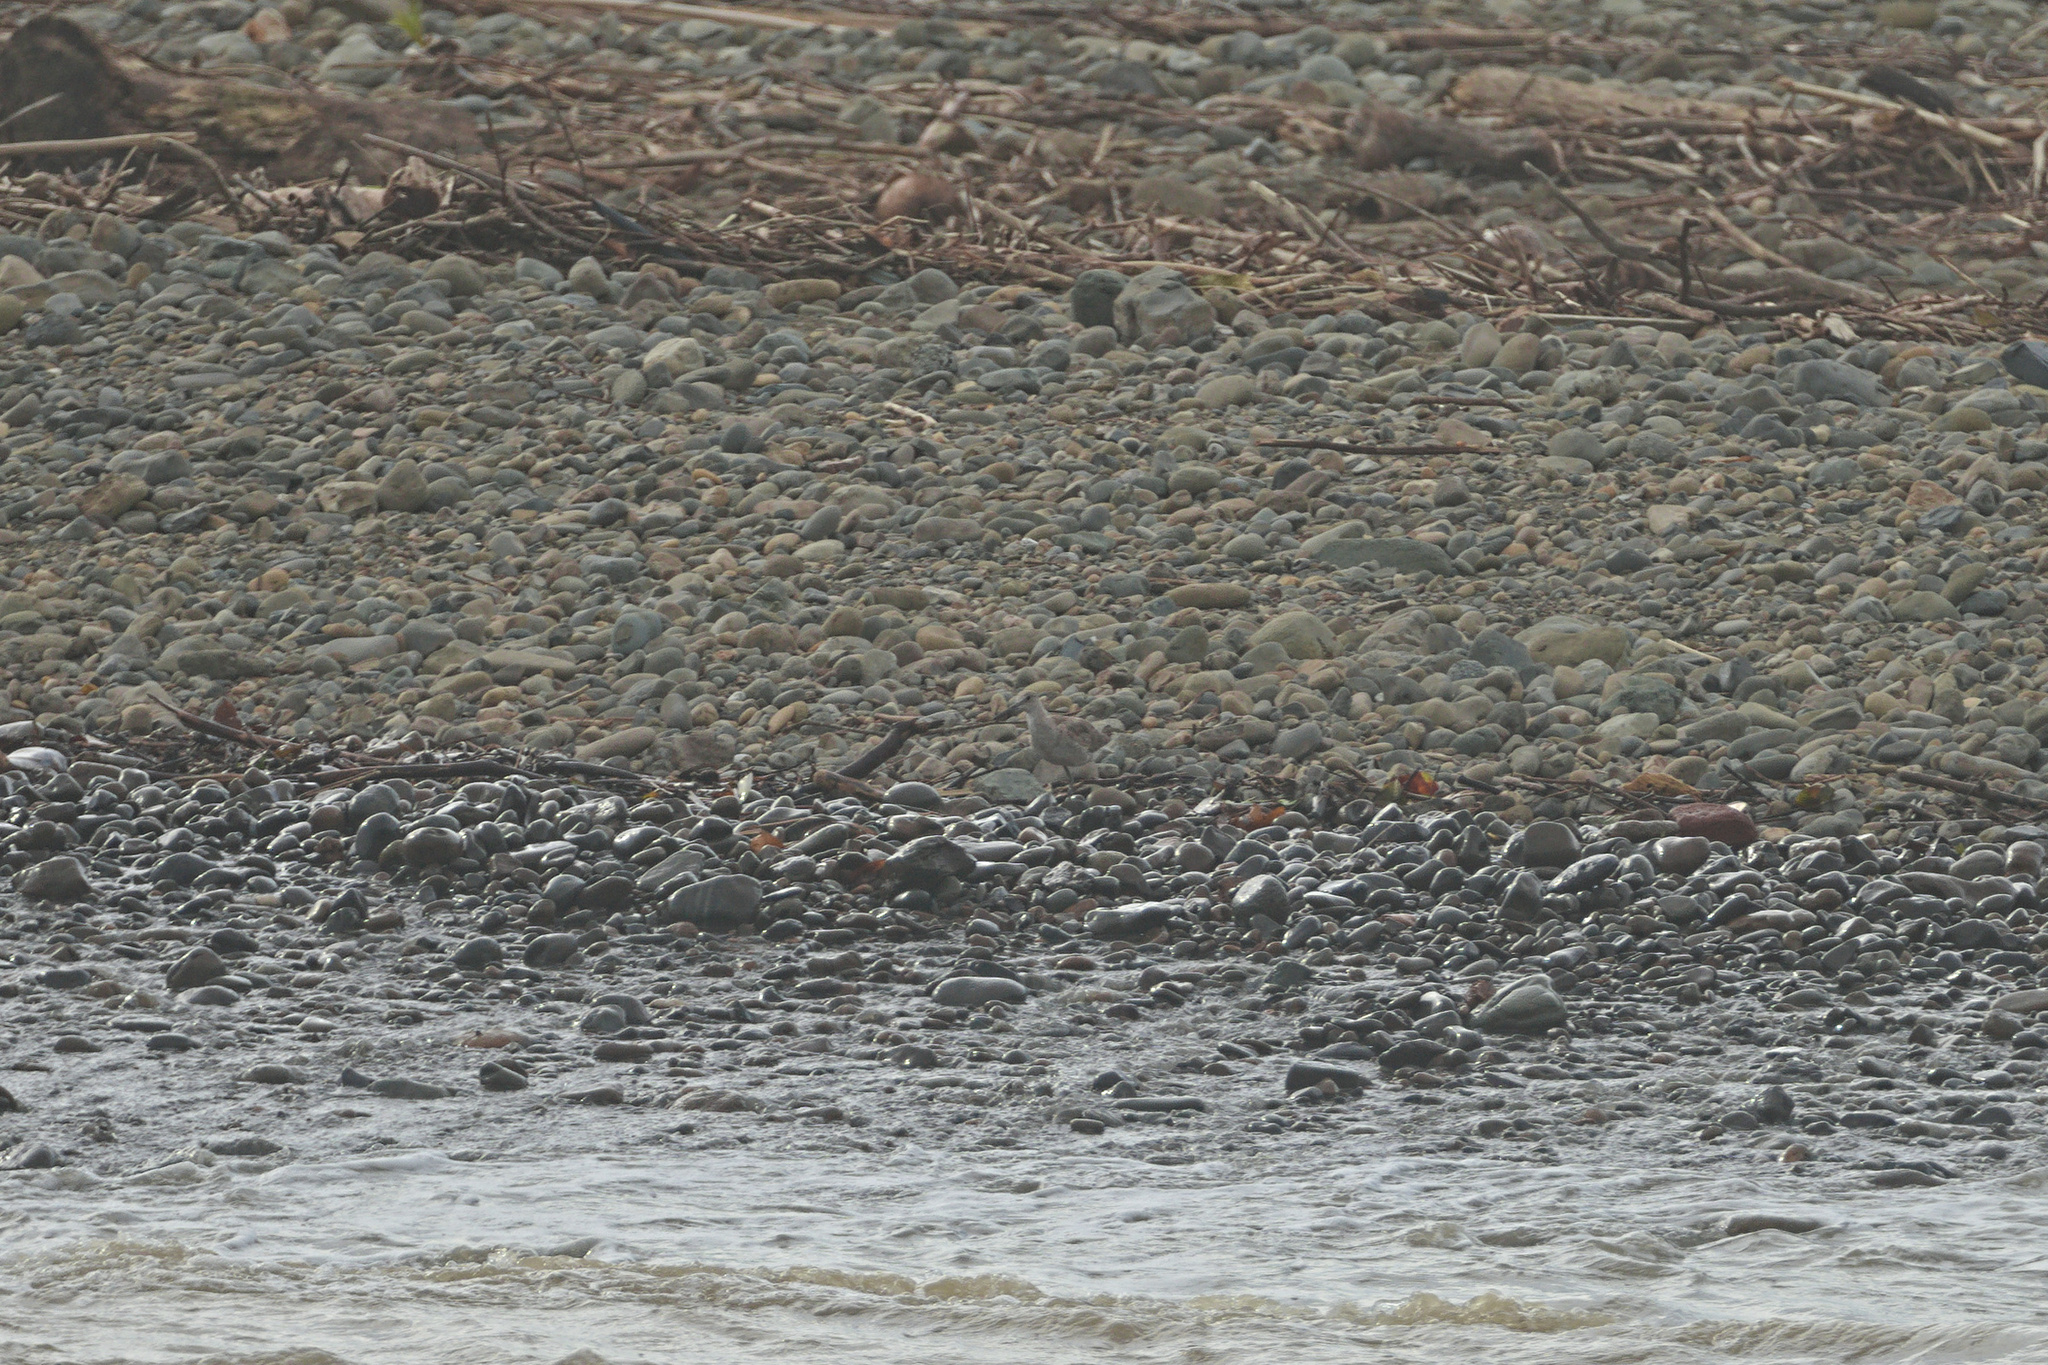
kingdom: Animalia
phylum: Chordata
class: Aves
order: Charadriiformes
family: Scolopacidae
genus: Tringa
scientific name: Tringa semipalmata
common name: Willet
